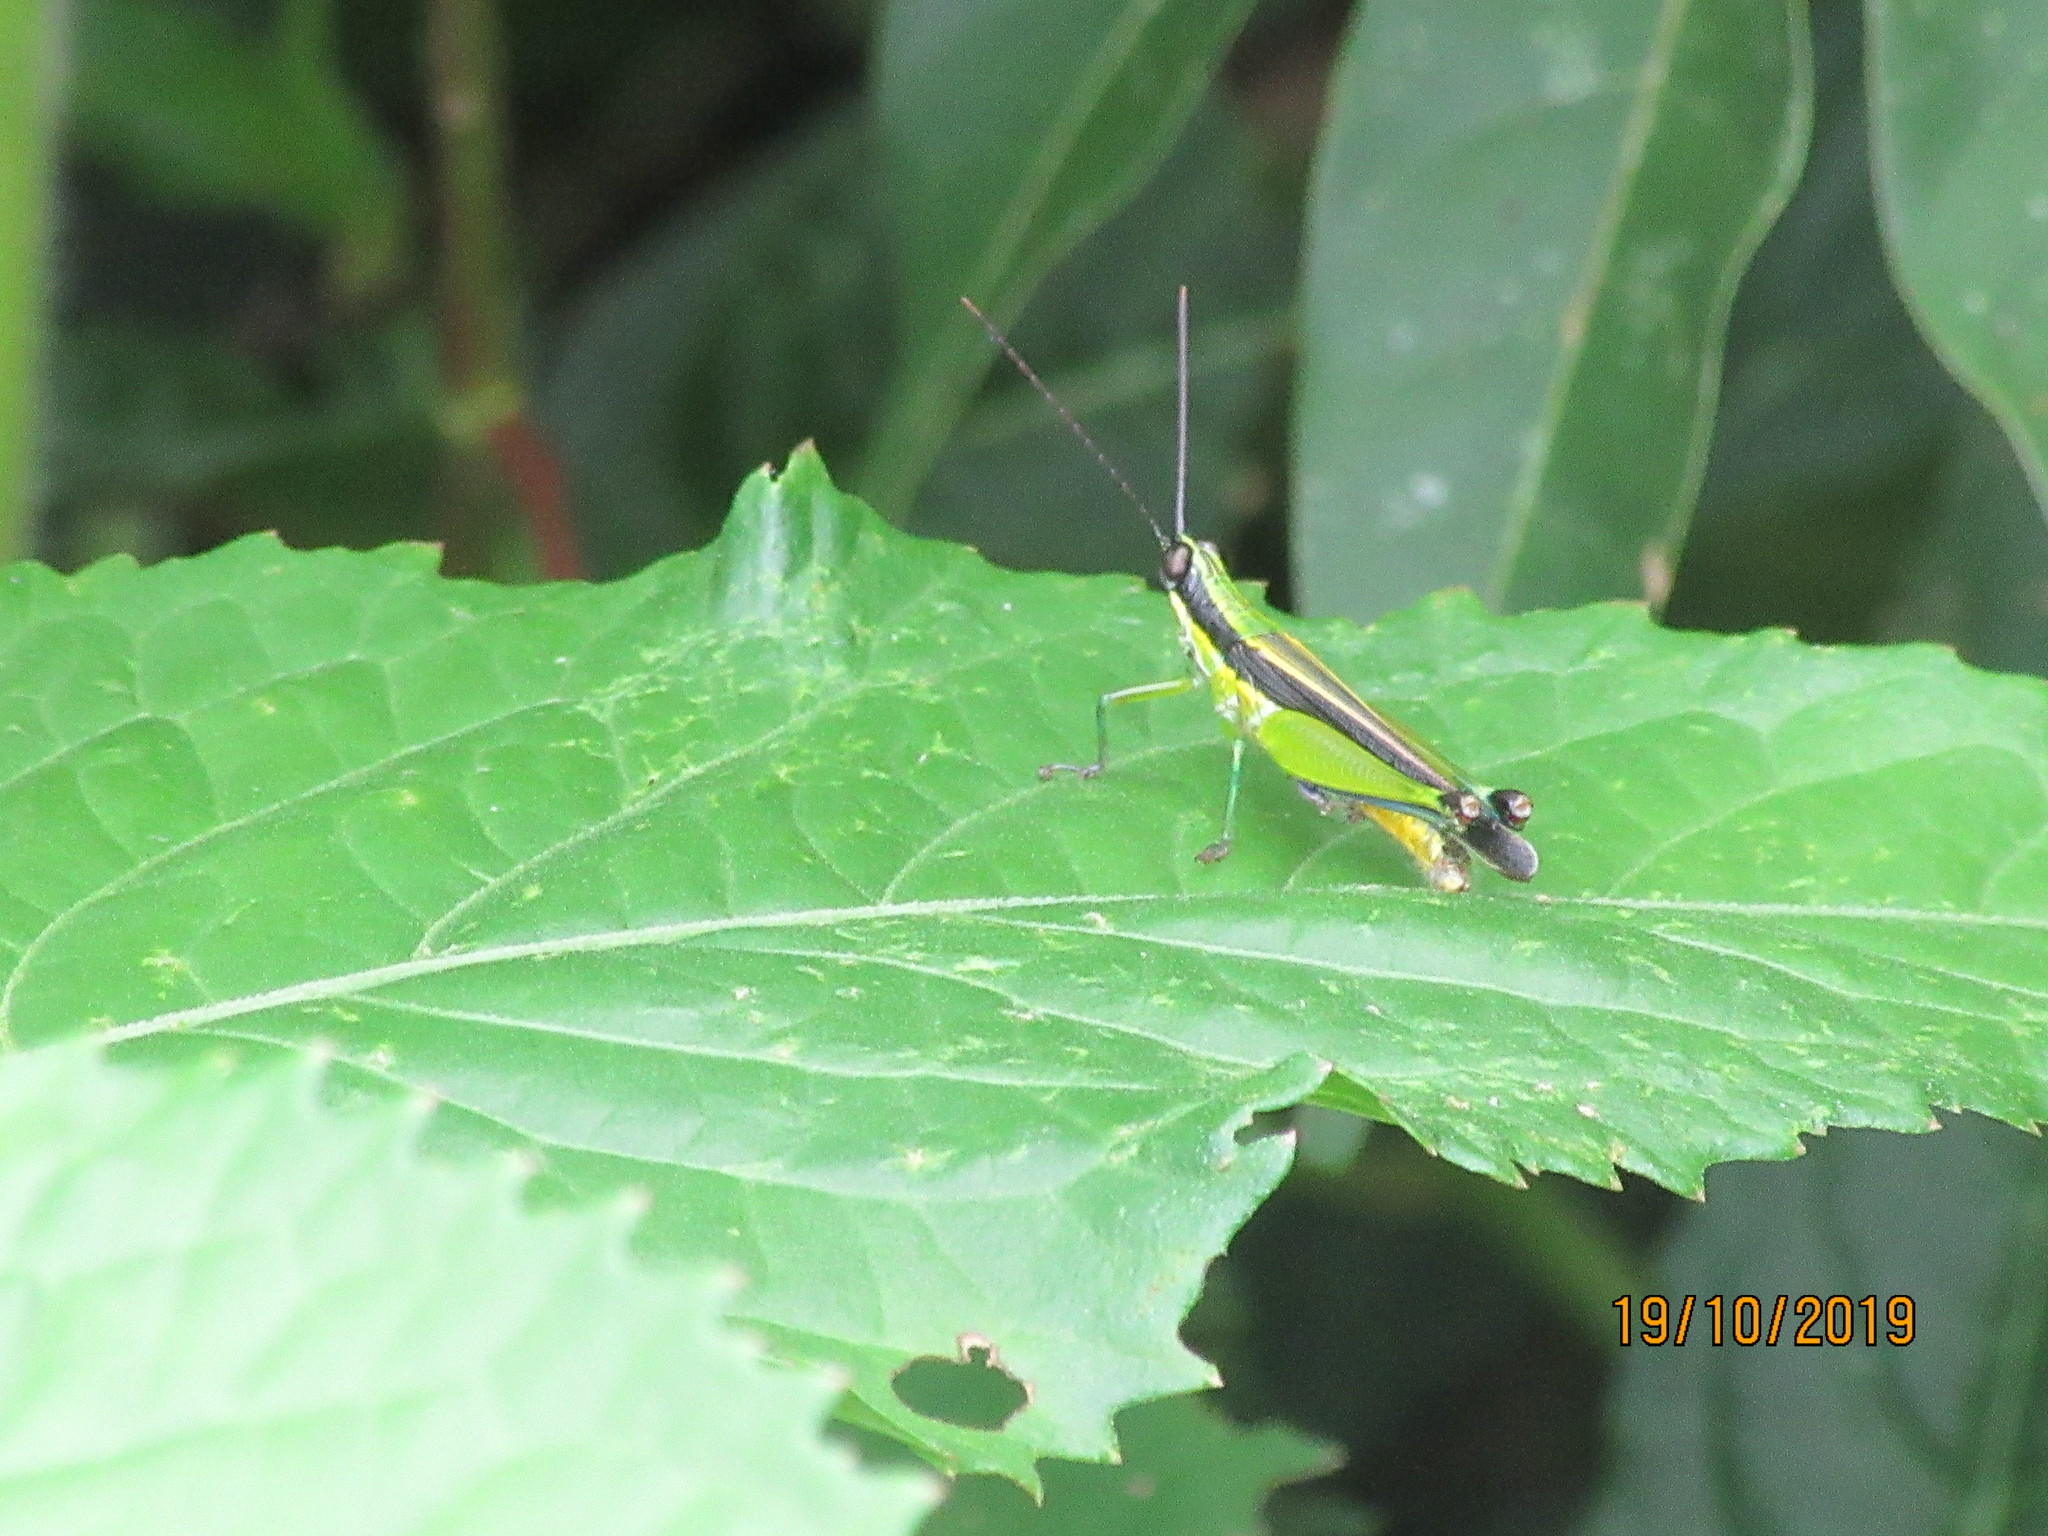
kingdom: Animalia
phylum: Arthropoda
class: Insecta
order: Orthoptera
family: Acrididae
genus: Stenopola
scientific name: Stenopola boliviana
